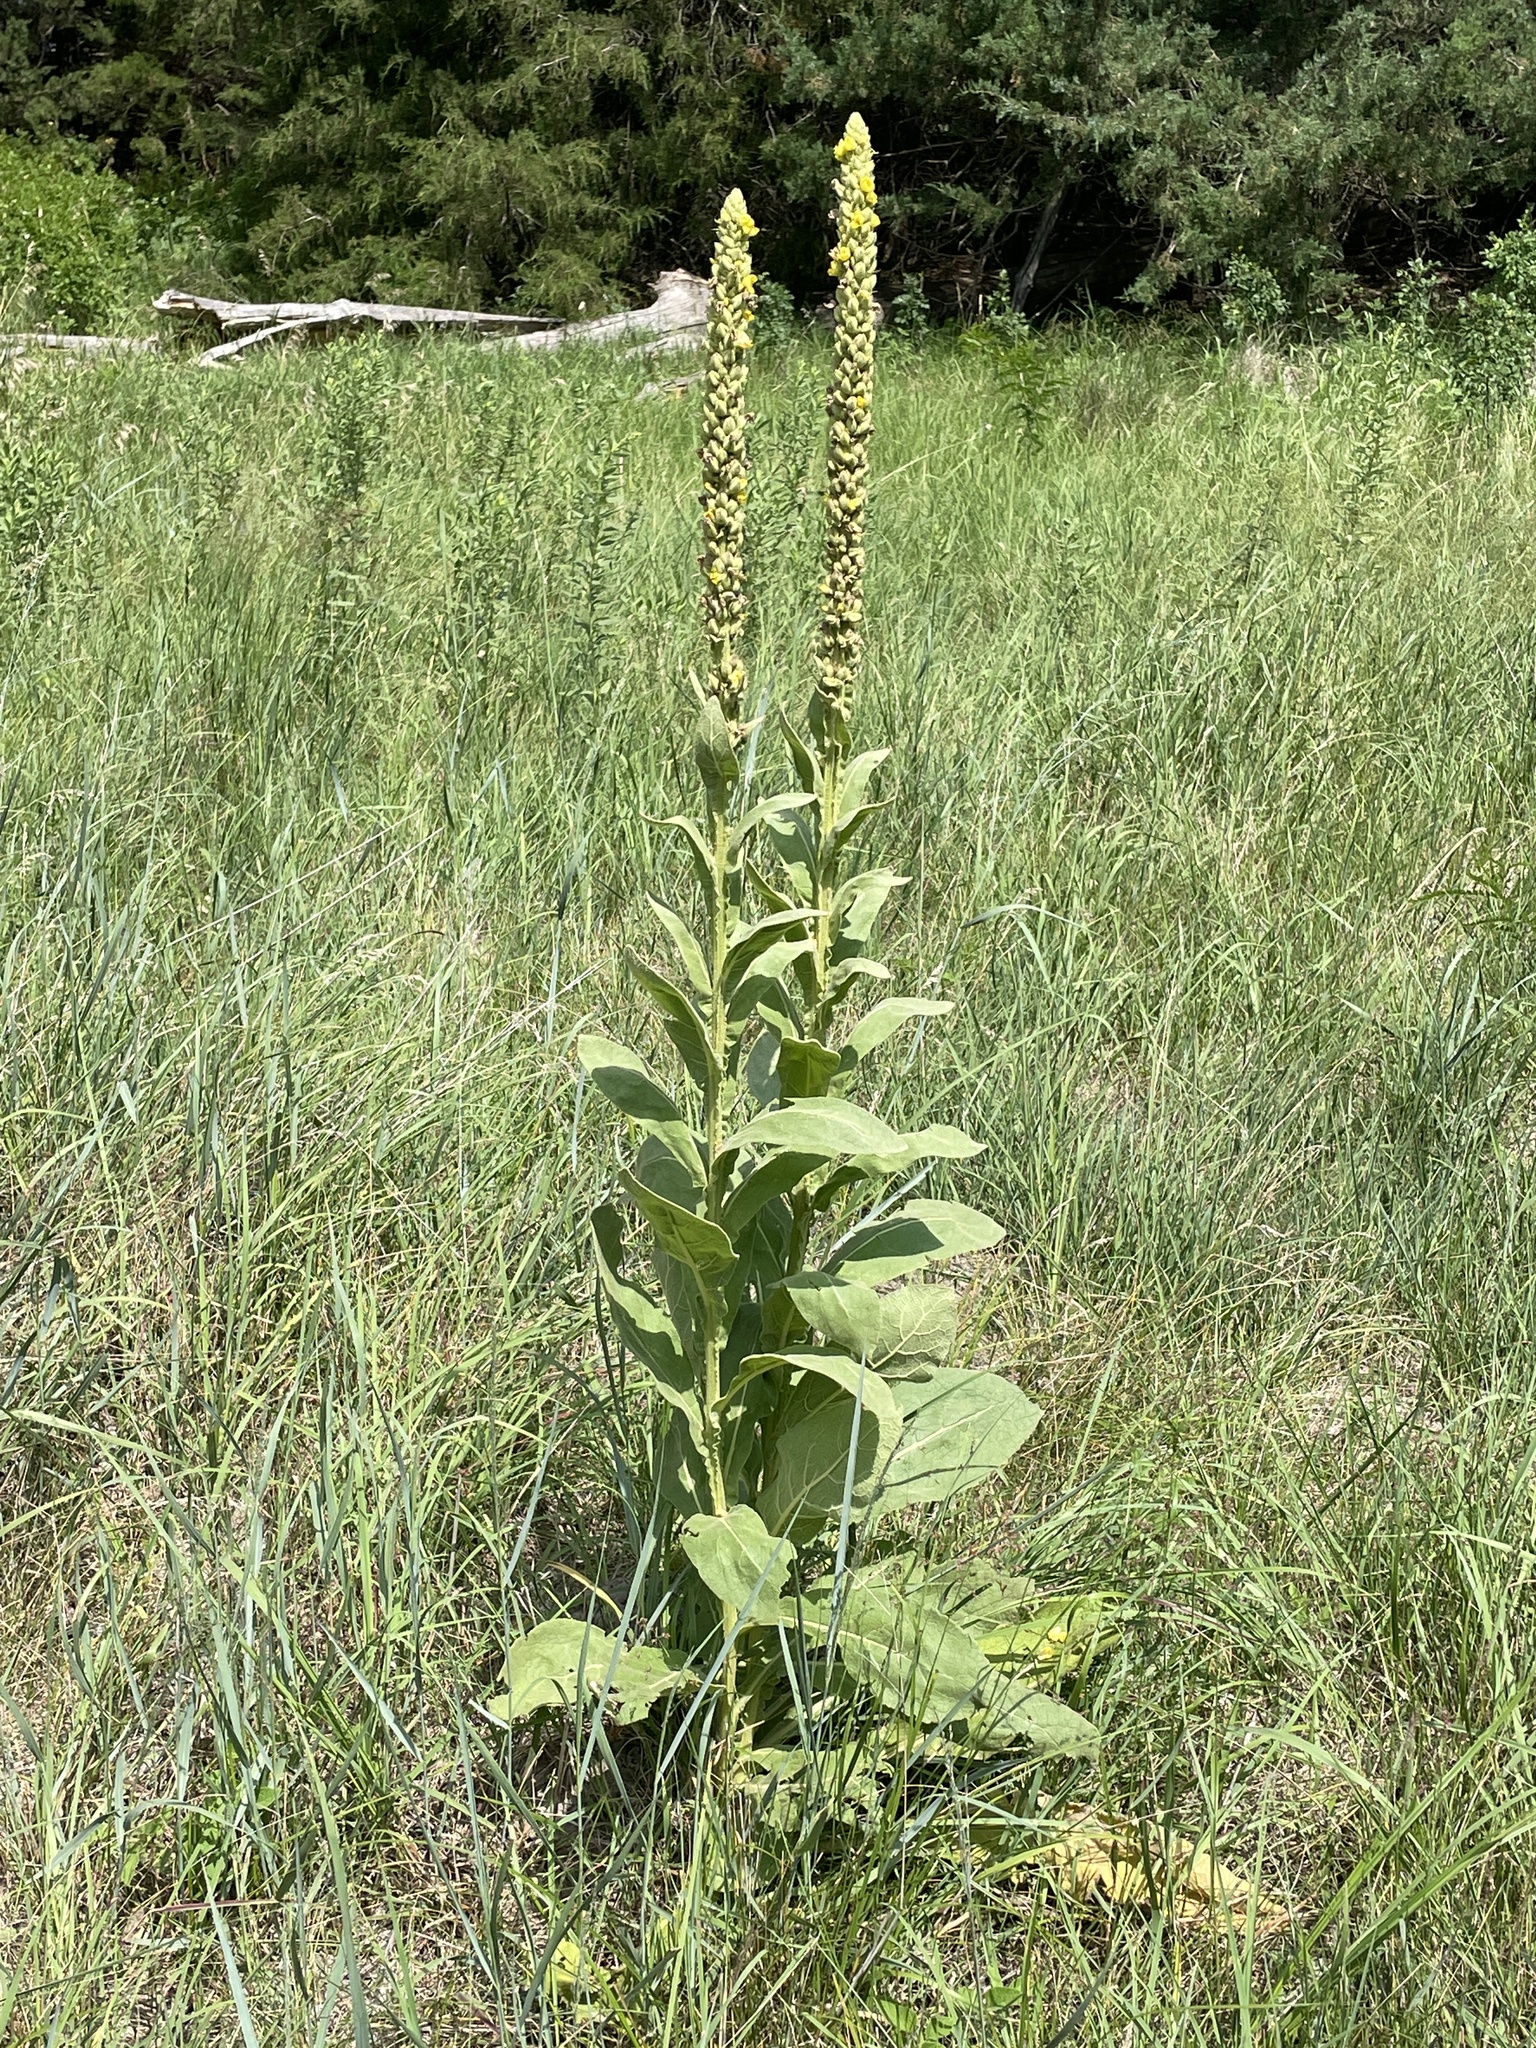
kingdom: Plantae
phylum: Tracheophyta
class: Magnoliopsida
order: Lamiales
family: Scrophulariaceae
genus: Verbascum
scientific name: Verbascum thapsus
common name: Common mullein
